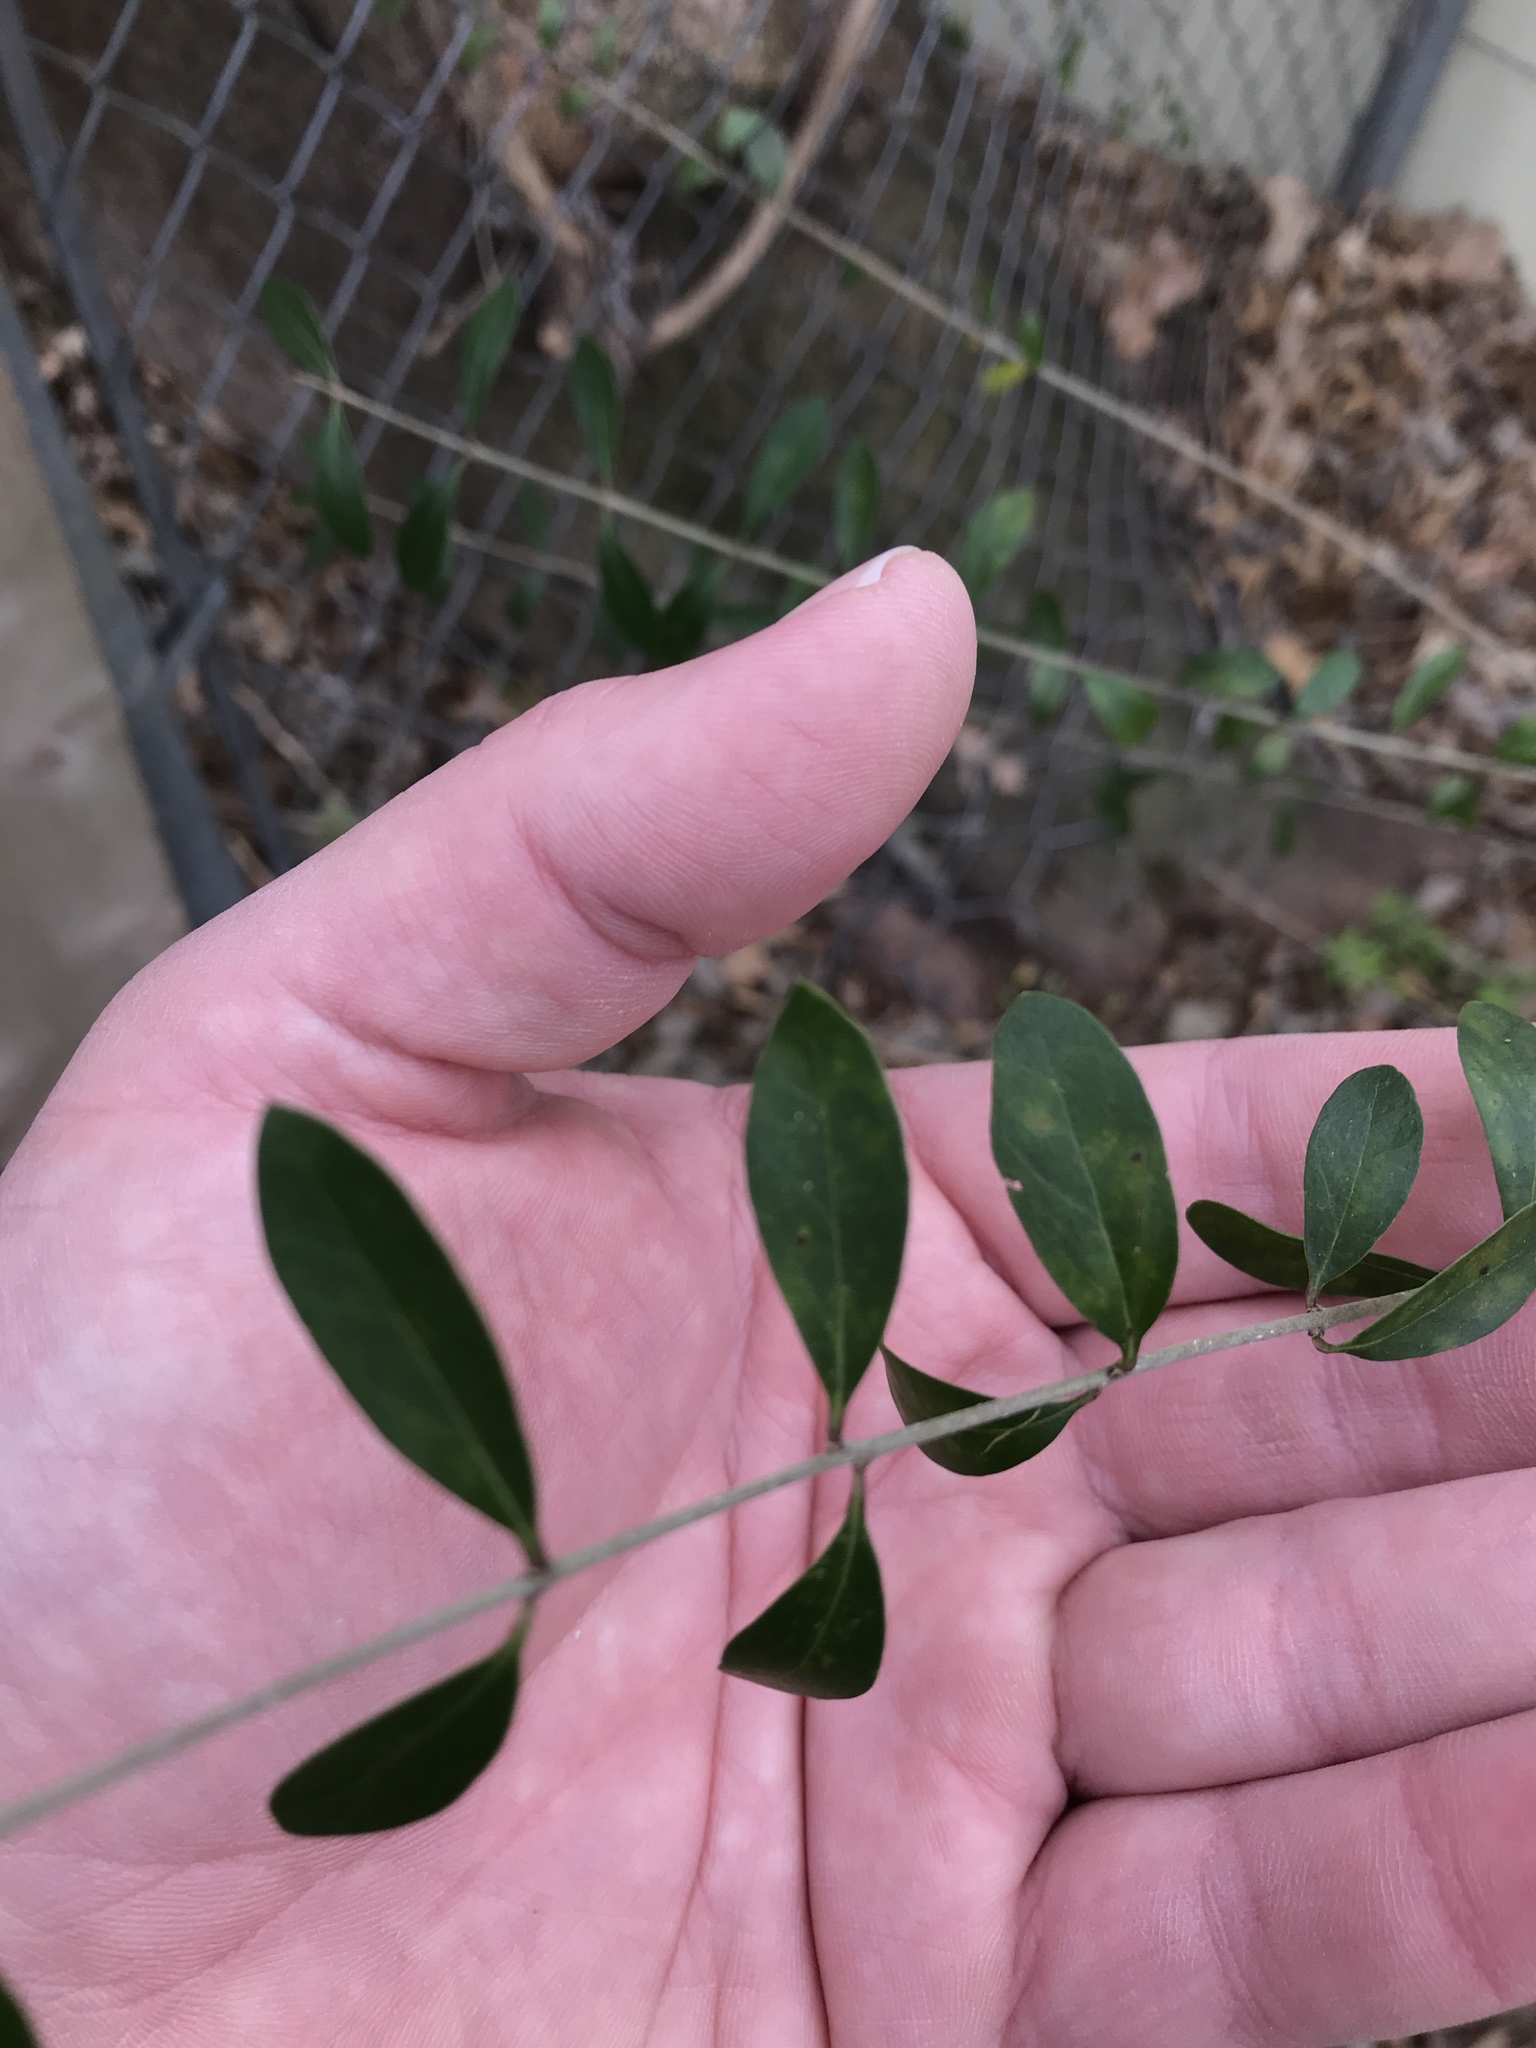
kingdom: Plantae
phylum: Tracheophyta
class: Magnoliopsida
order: Lamiales
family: Oleaceae
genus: Ligustrum
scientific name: Ligustrum quihoui
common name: Waxyleaf privet
